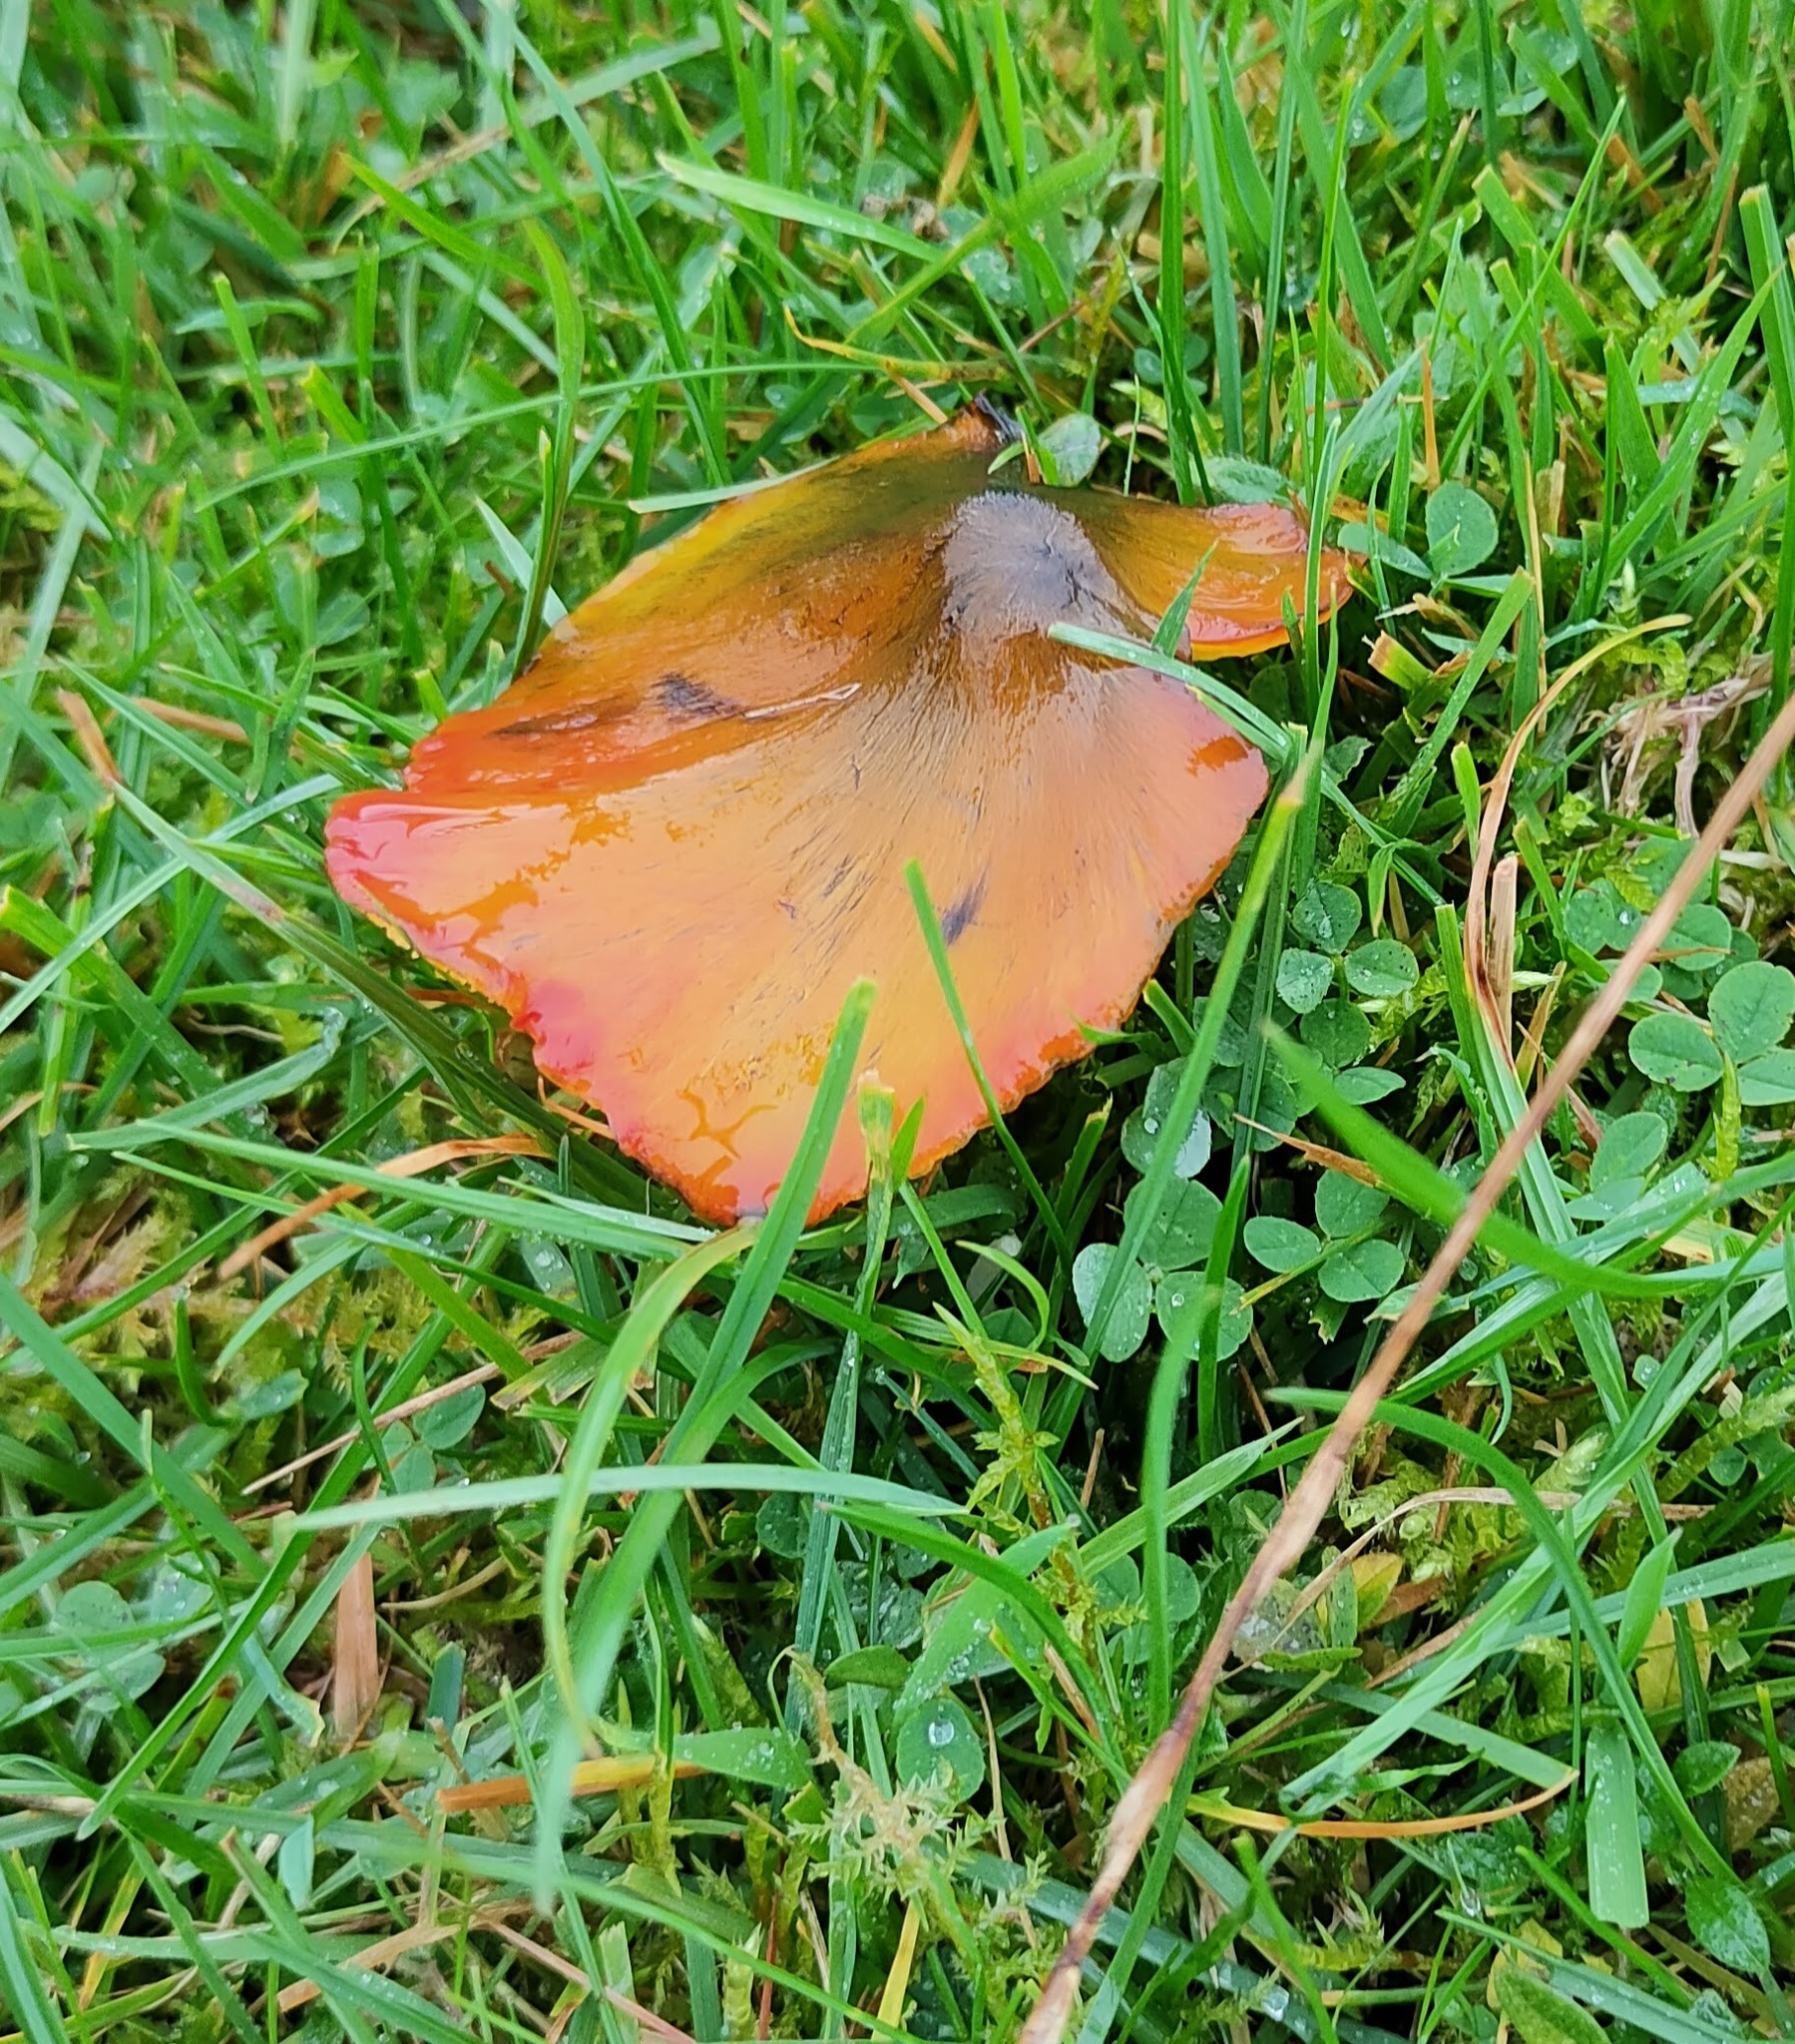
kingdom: Fungi
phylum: Basidiomycota
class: Agaricomycetes
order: Agaricales
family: Hygrophoraceae
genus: Hygrocybe
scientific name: Hygrocybe conica
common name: Blackening wax-cap
